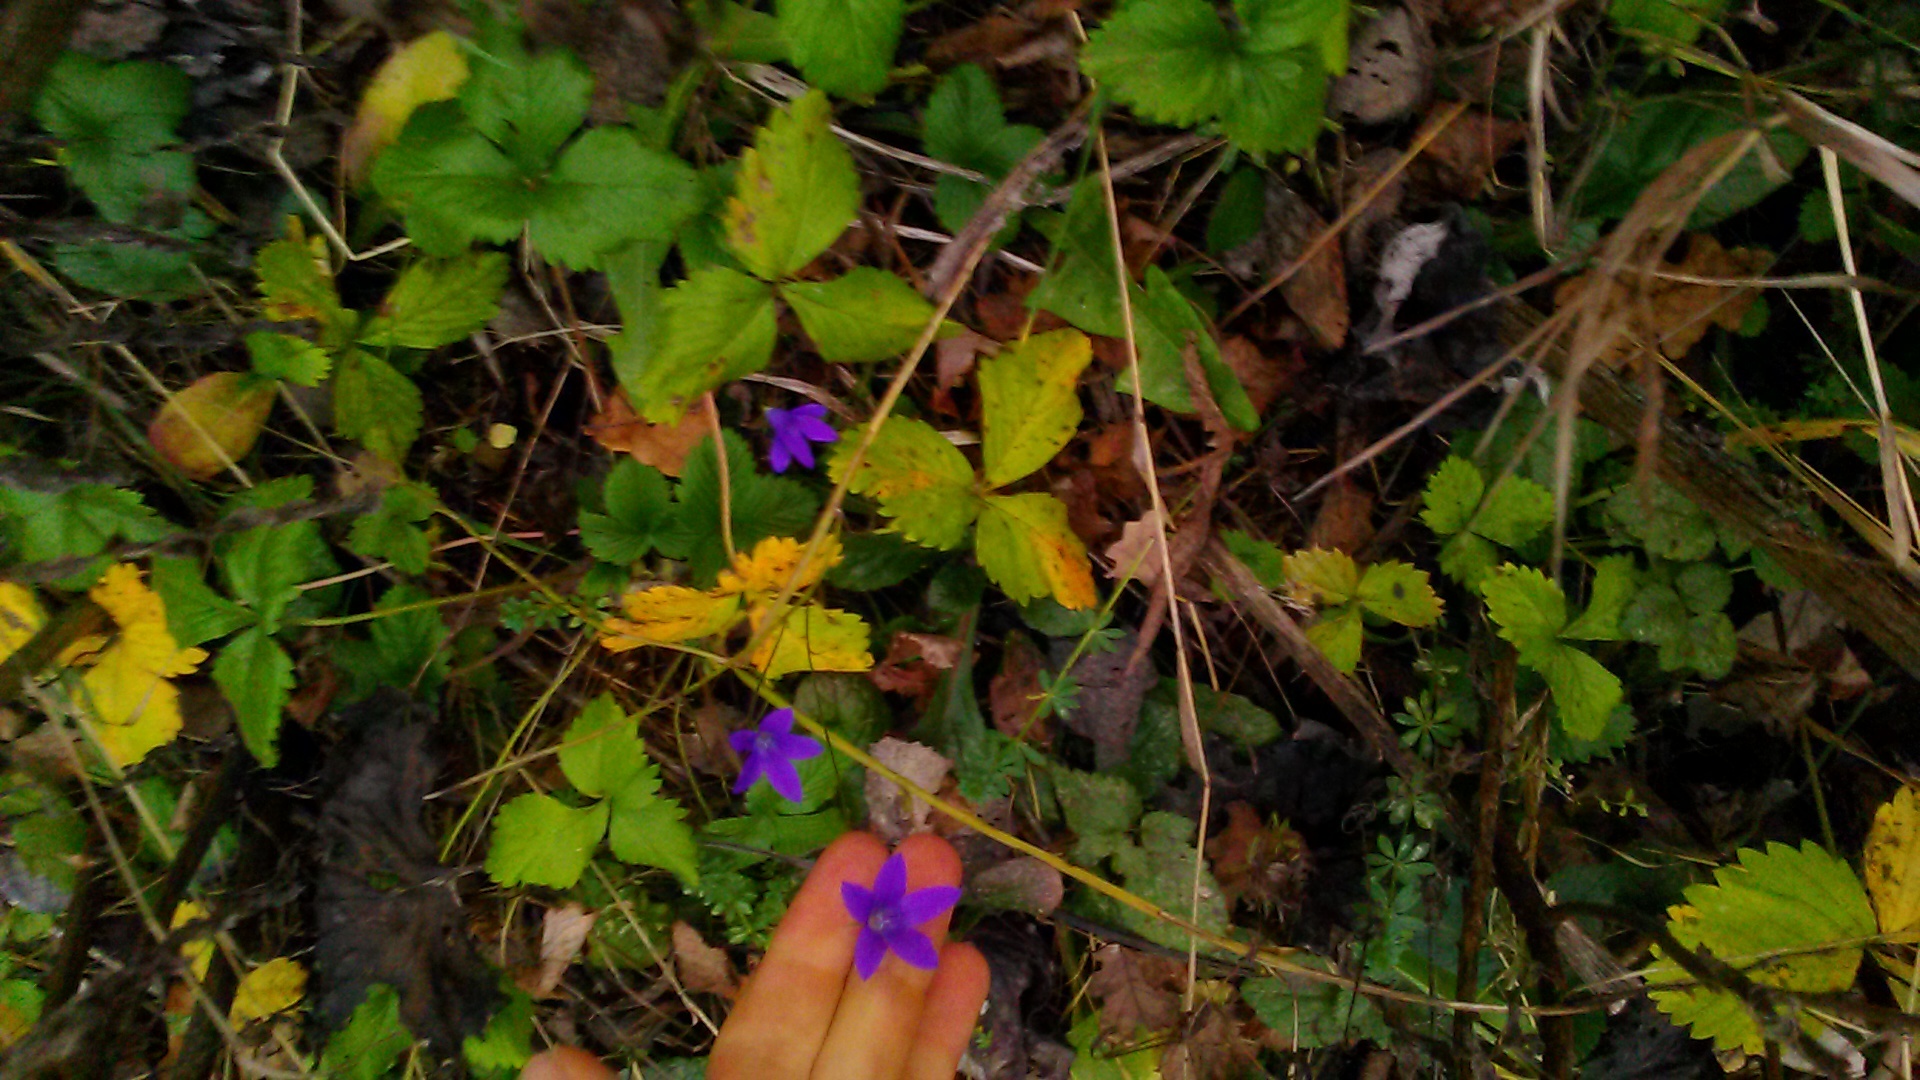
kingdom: Plantae
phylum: Tracheophyta
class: Magnoliopsida
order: Asterales
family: Campanulaceae
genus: Campanula
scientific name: Campanula patula
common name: Spreading bellflower
